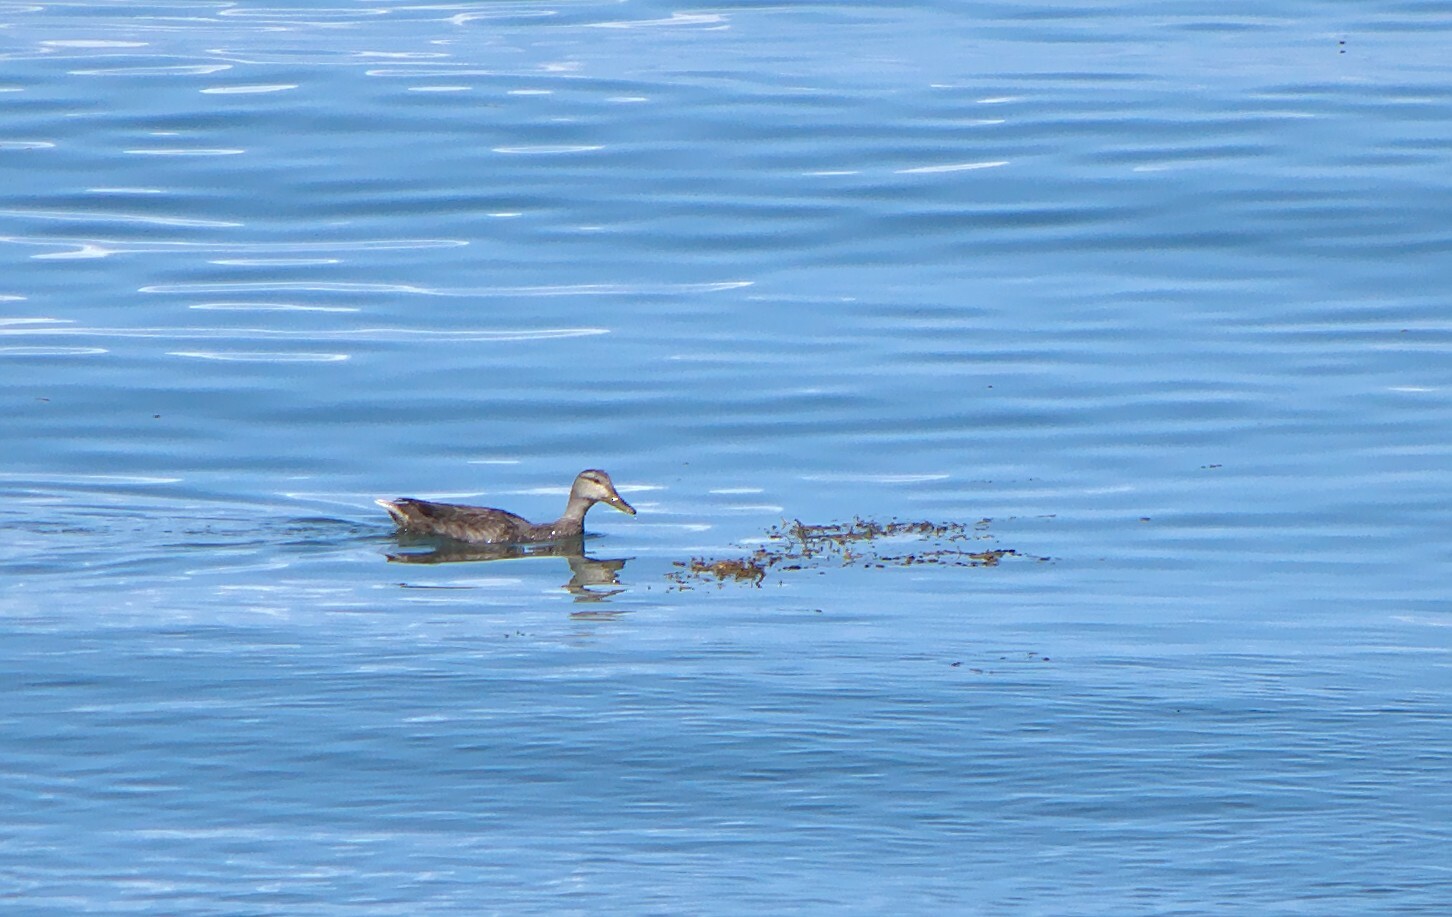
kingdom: Animalia
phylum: Chordata
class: Aves
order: Anseriformes
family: Anatidae
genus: Anas
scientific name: Anas
